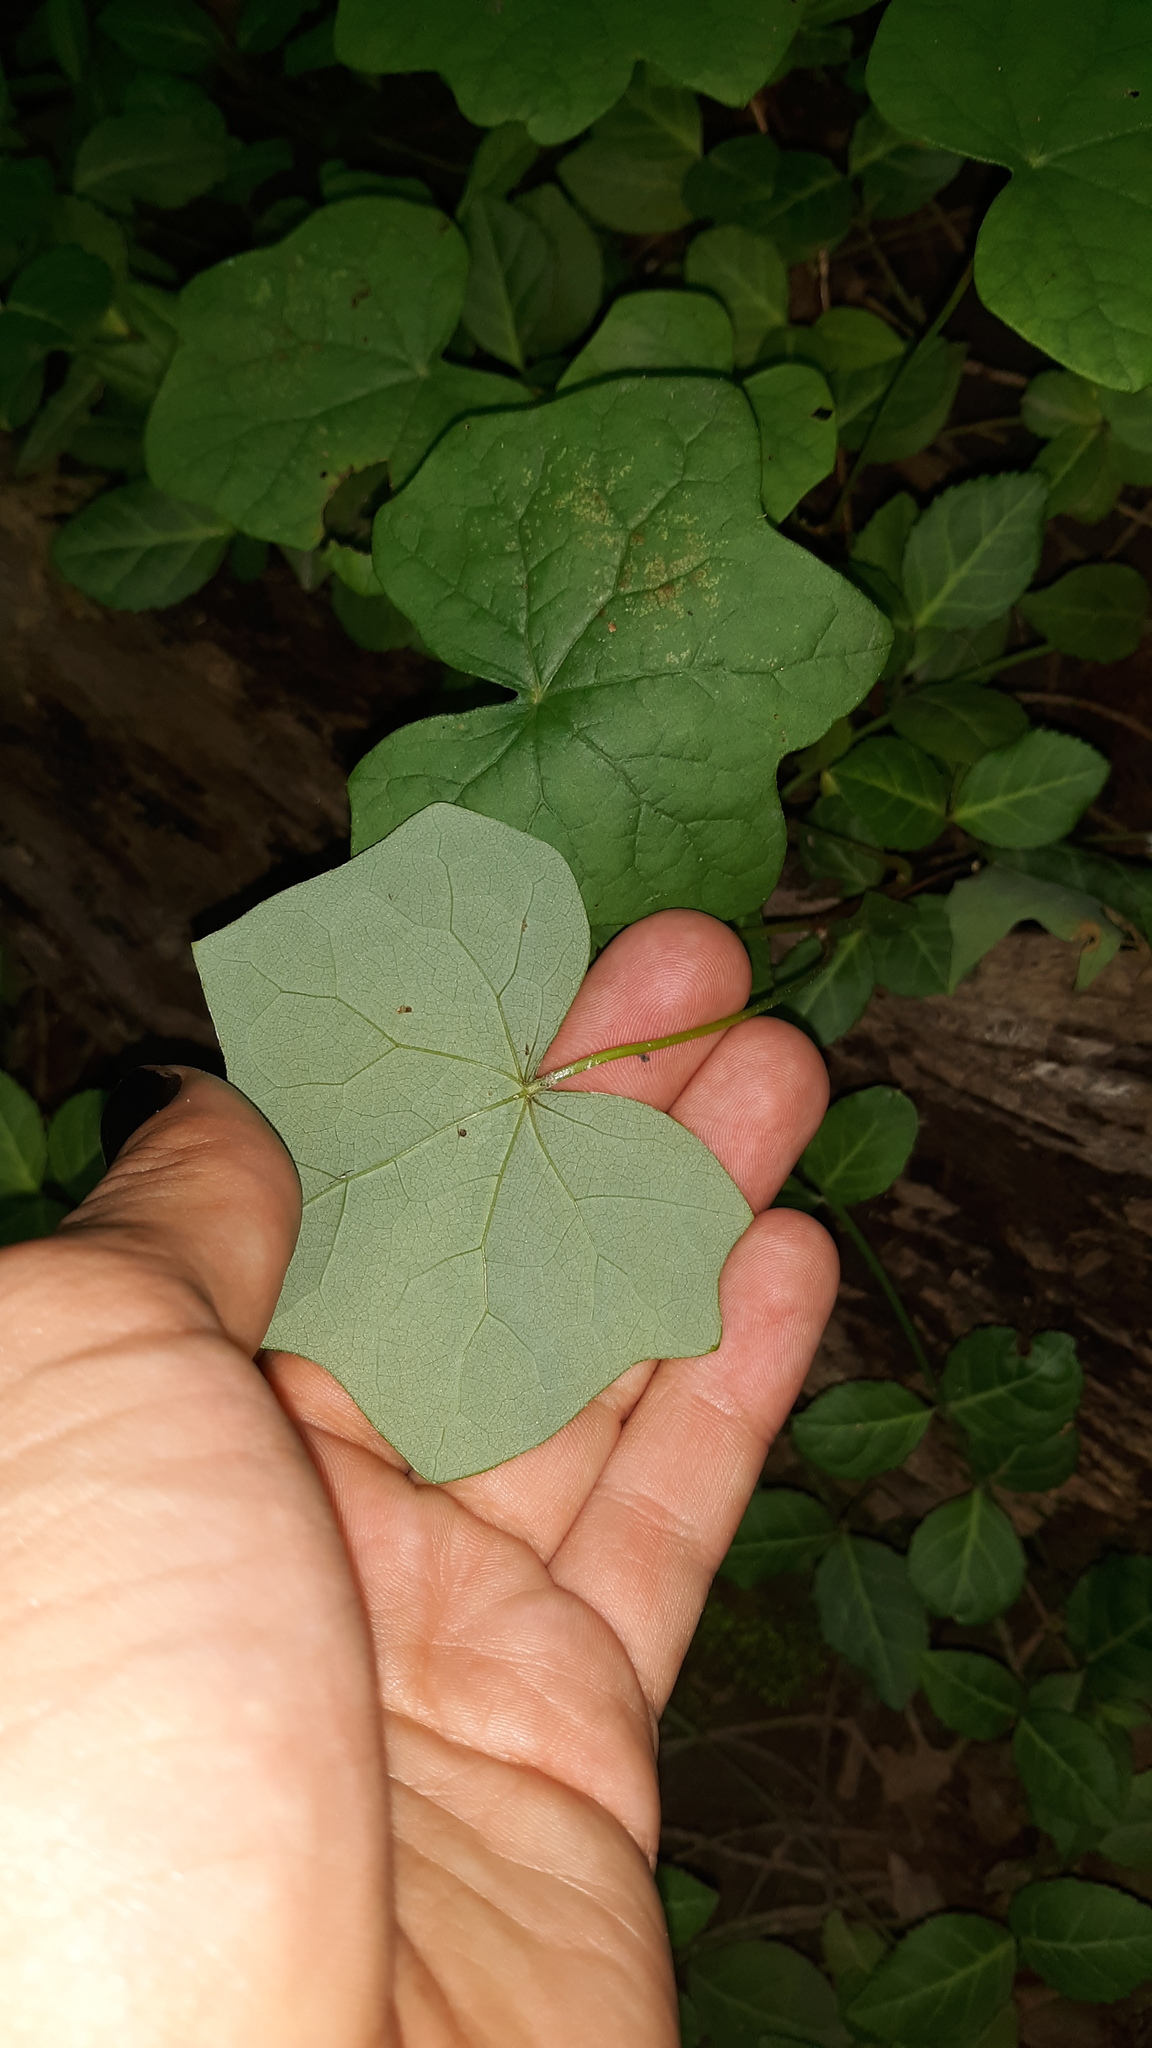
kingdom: Plantae
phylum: Tracheophyta
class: Magnoliopsida
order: Ranunculales
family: Menispermaceae
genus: Menispermum
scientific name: Menispermum canadense
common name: Moonseed
